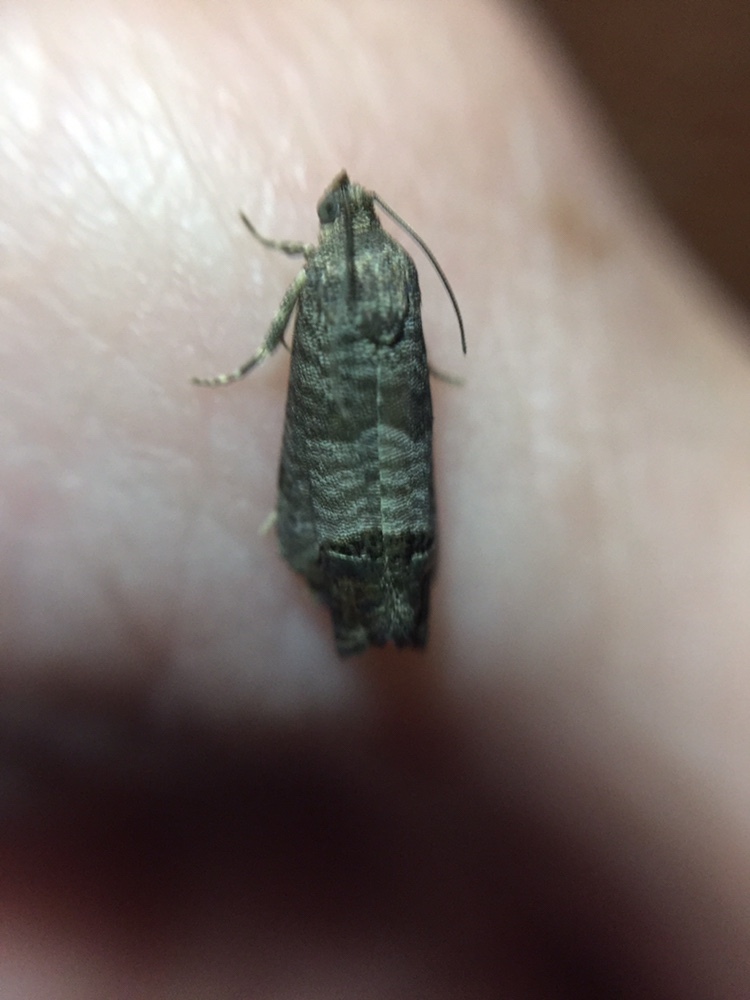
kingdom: Animalia
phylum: Arthropoda
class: Insecta
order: Lepidoptera
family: Tortricidae
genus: Cydia
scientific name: Cydia pomonella
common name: Codling moth
